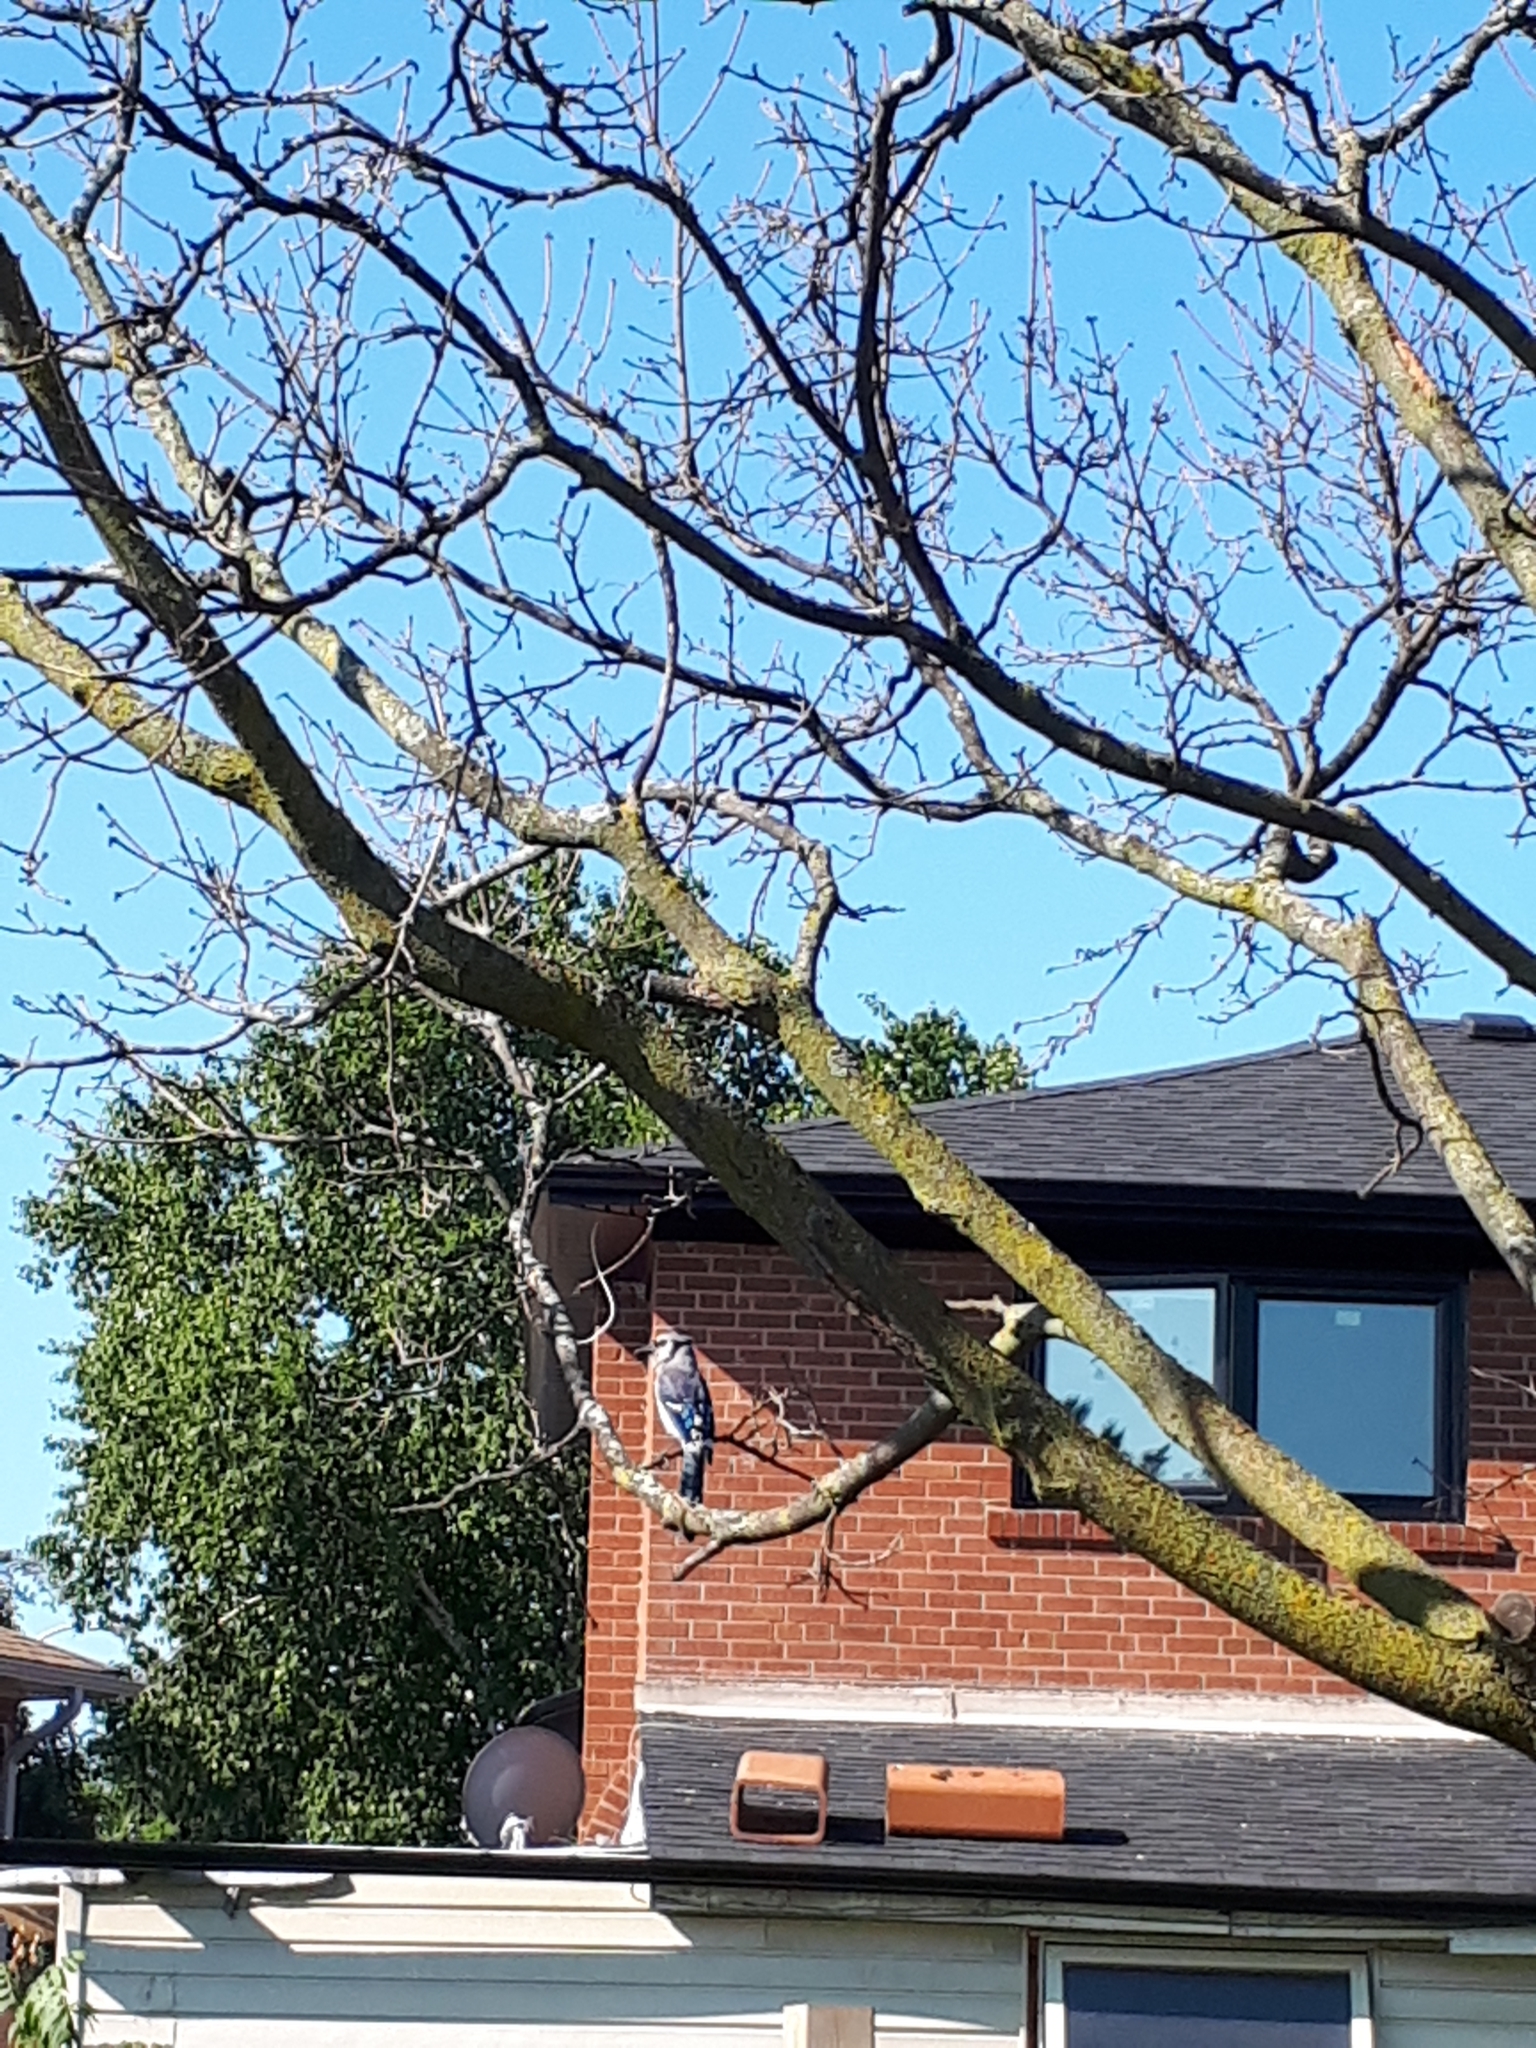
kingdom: Animalia
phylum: Chordata
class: Aves
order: Passeriformes
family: Corvidae
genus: Cyanocitta
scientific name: Cyanocitta cristata
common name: Blue jay
